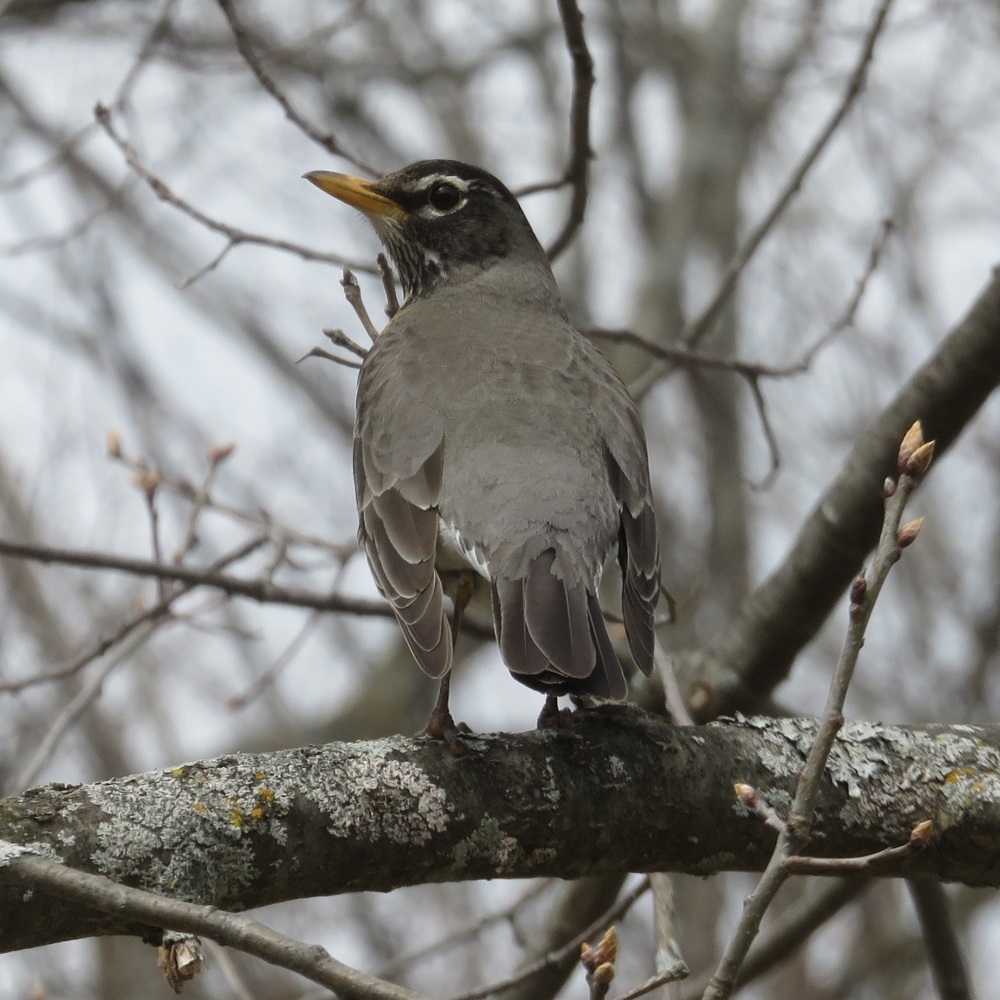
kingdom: Animalia
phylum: Chordata
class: Aves
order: Passeriformes
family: Turdidae
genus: Turdus
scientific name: Turdus migratorius
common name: American robin
